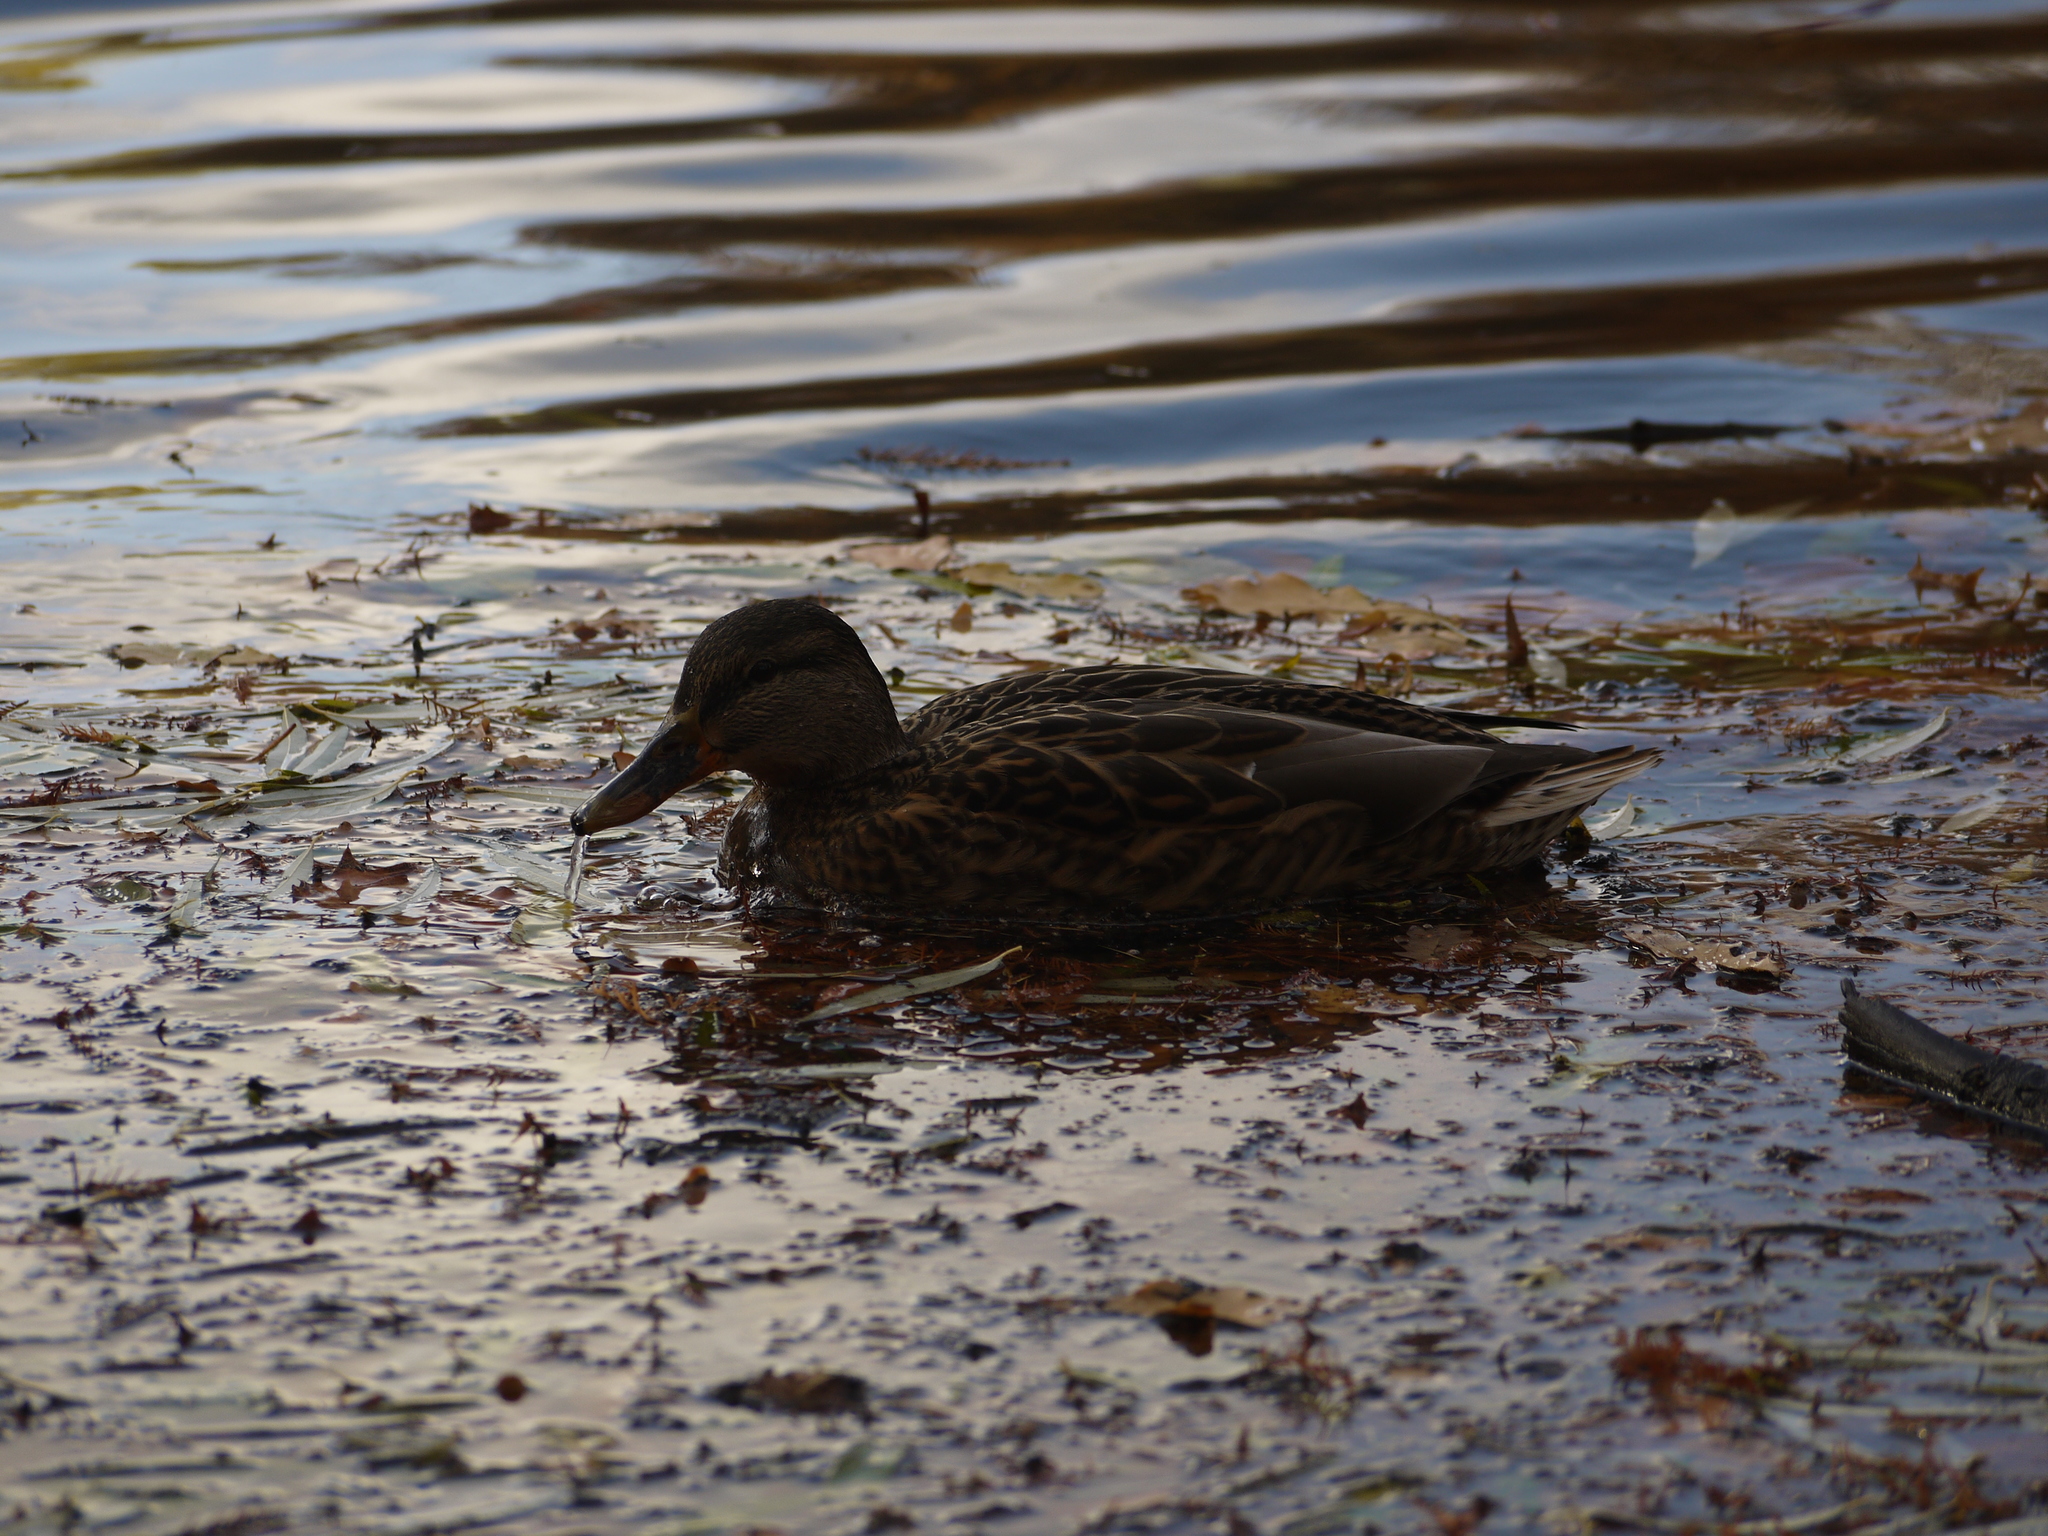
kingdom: Animalia
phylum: Chordata
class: Aves
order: Anseriformes
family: Anatidae
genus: Anas
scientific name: Anas platyrhynchos
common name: Mallard
